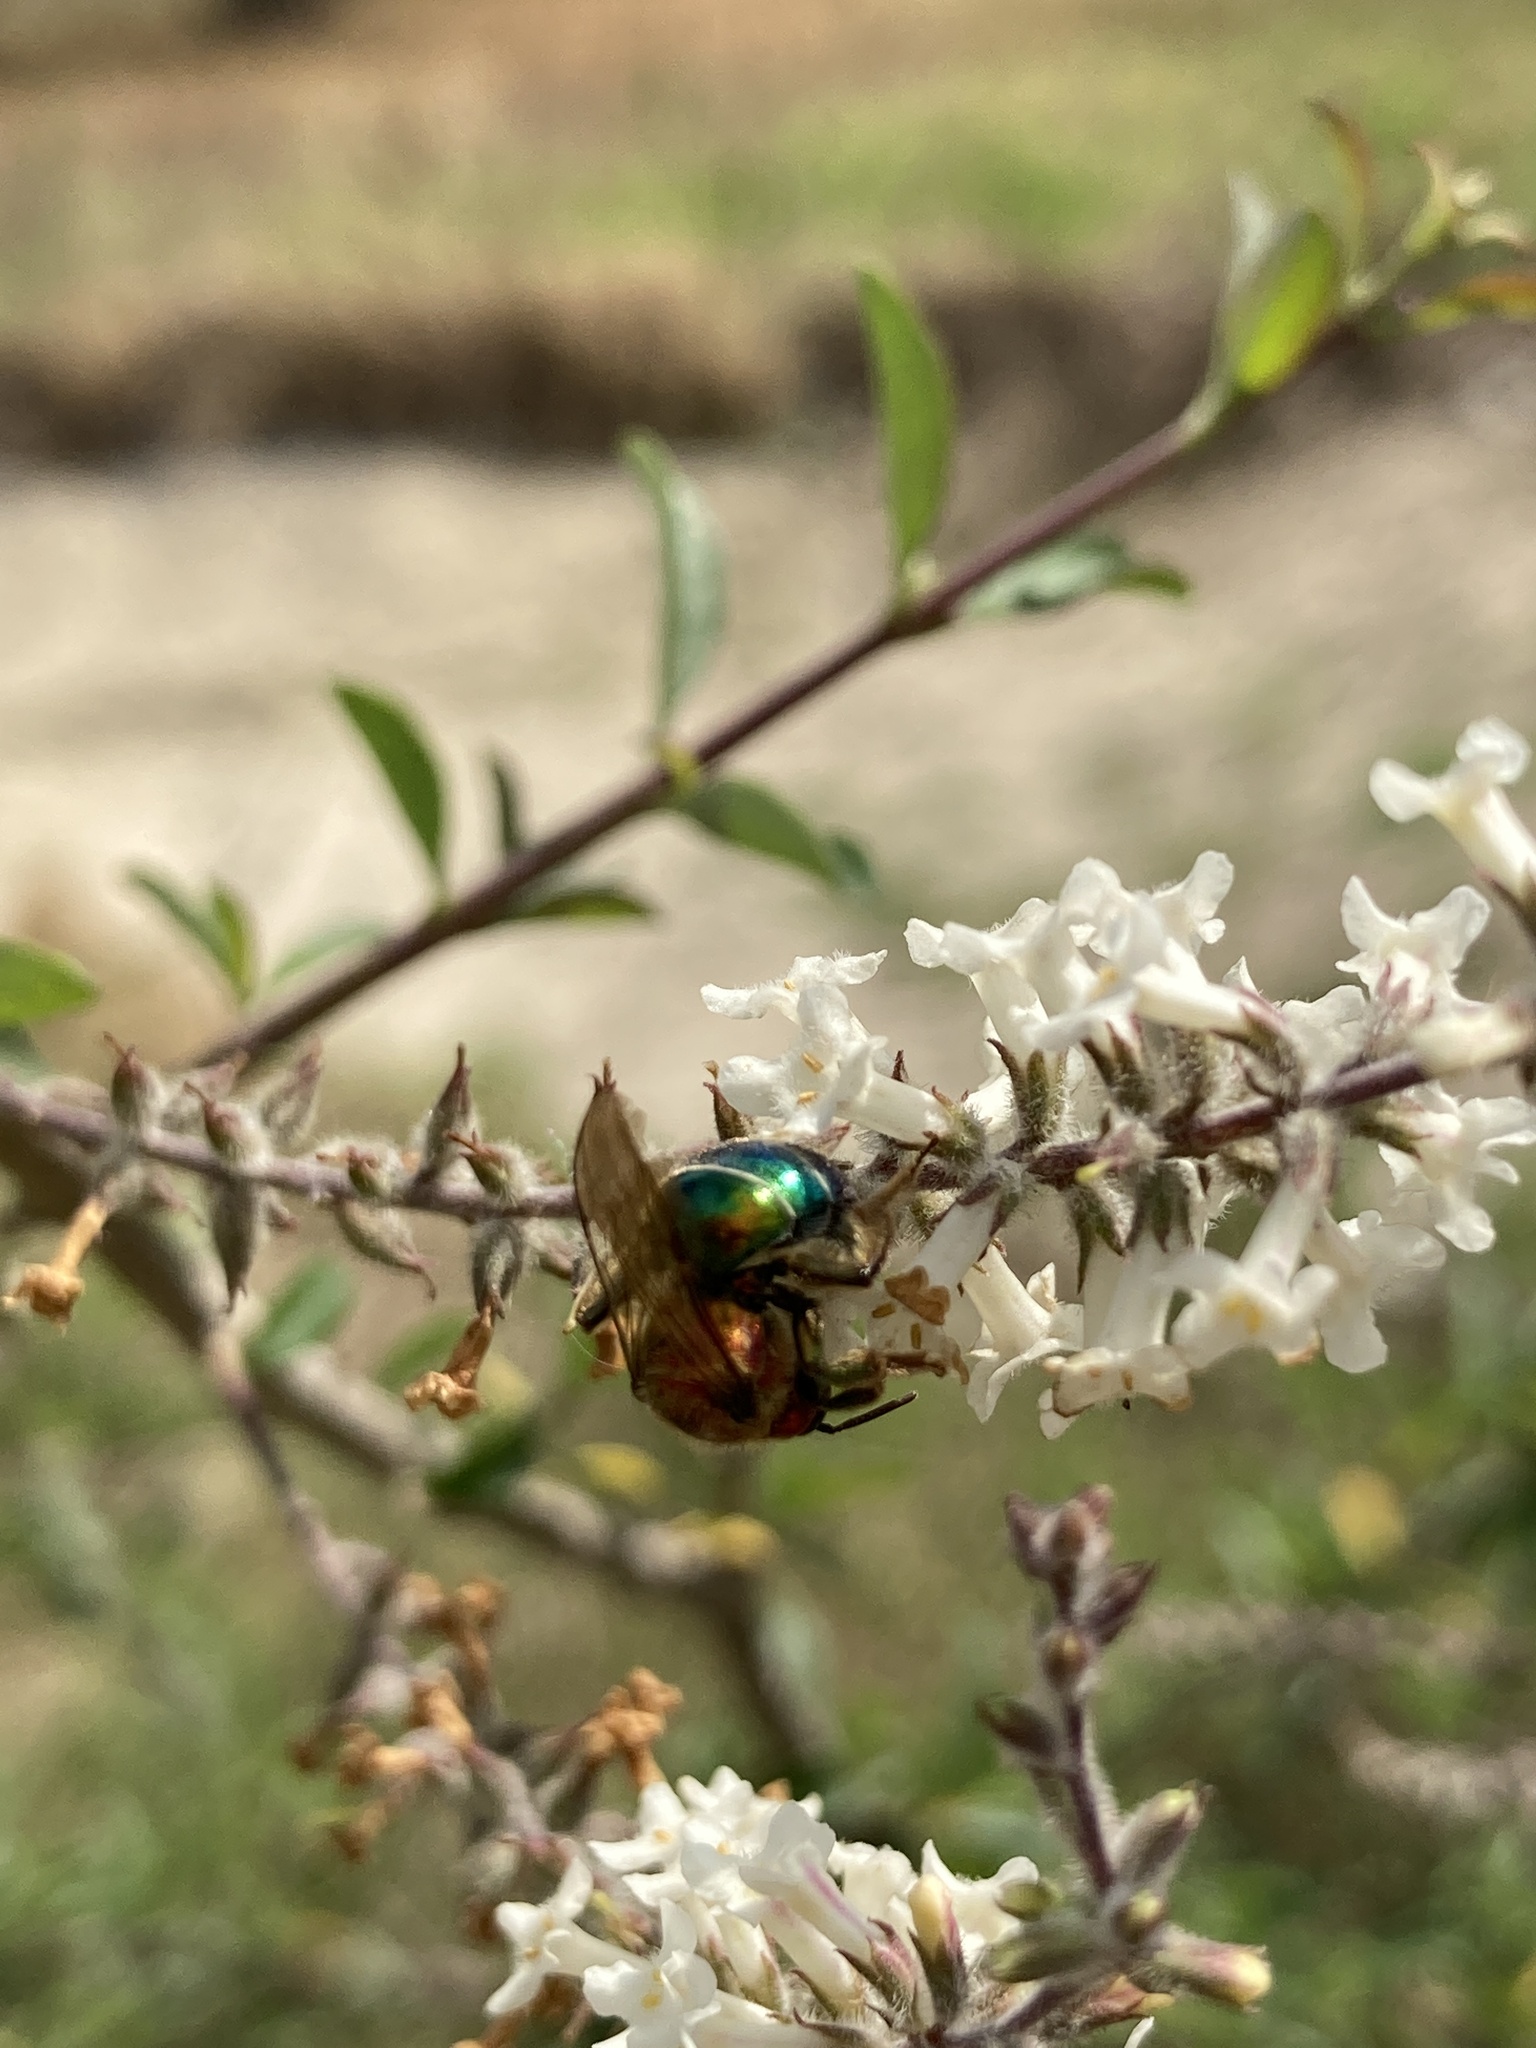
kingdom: Animalia
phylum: Arthropoda
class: Insecta
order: Hymenoptera
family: Halictidae
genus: Augochloropsis
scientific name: Augochloropsis tupacamaru
